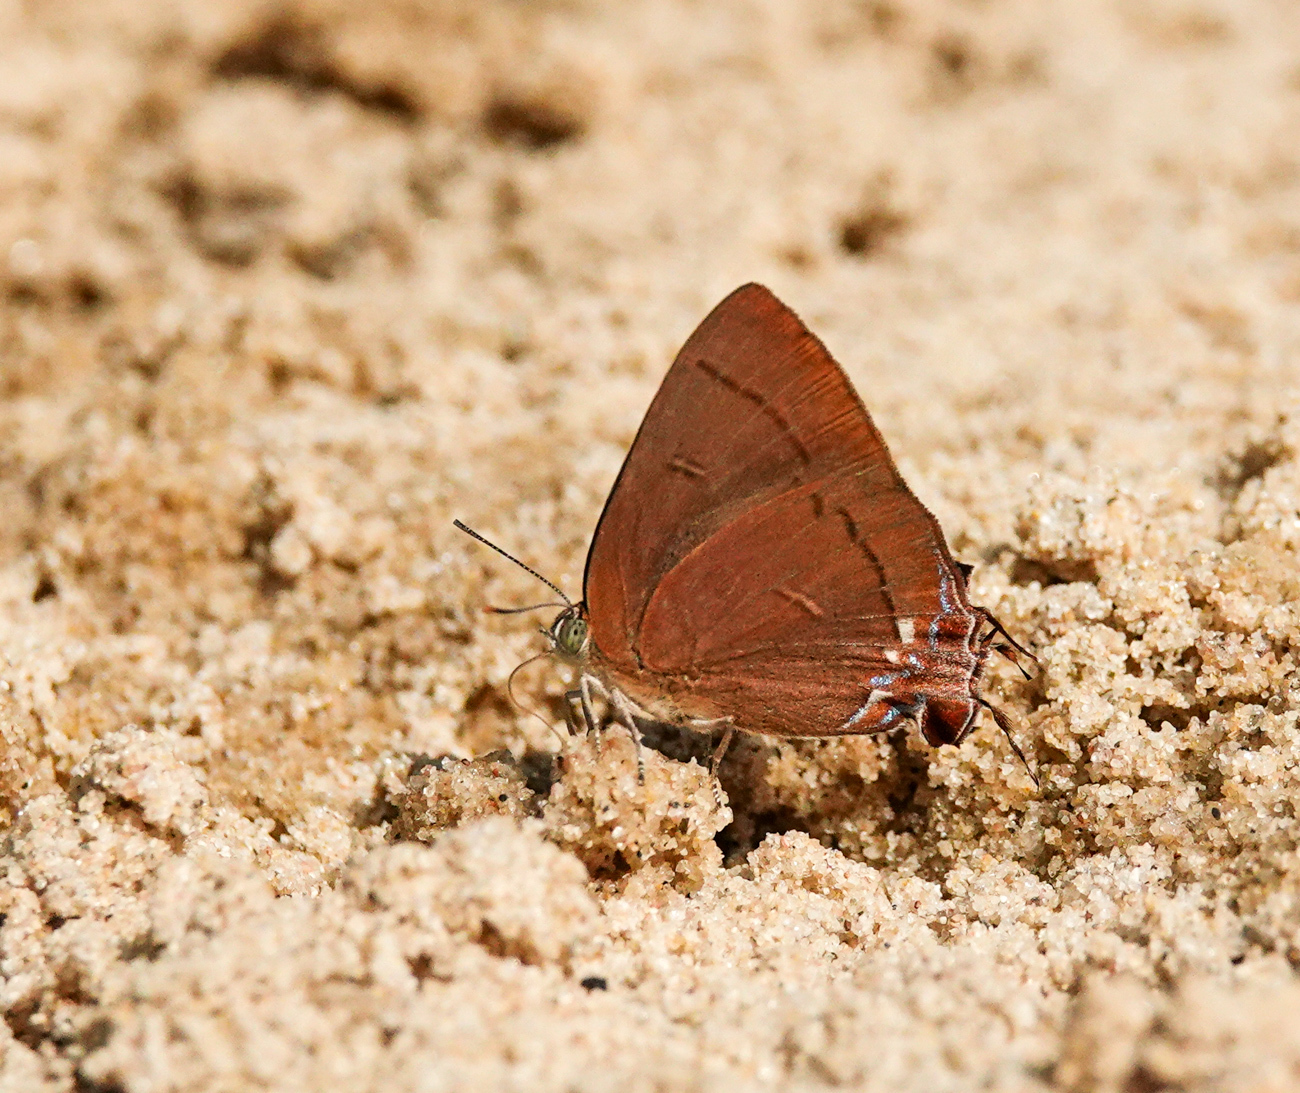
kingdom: Animalia
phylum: Arthropoda
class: Insecta
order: Lepidoptera
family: Lycaenidae
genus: Remelana
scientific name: Remelana jangala
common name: Chocolate royal
